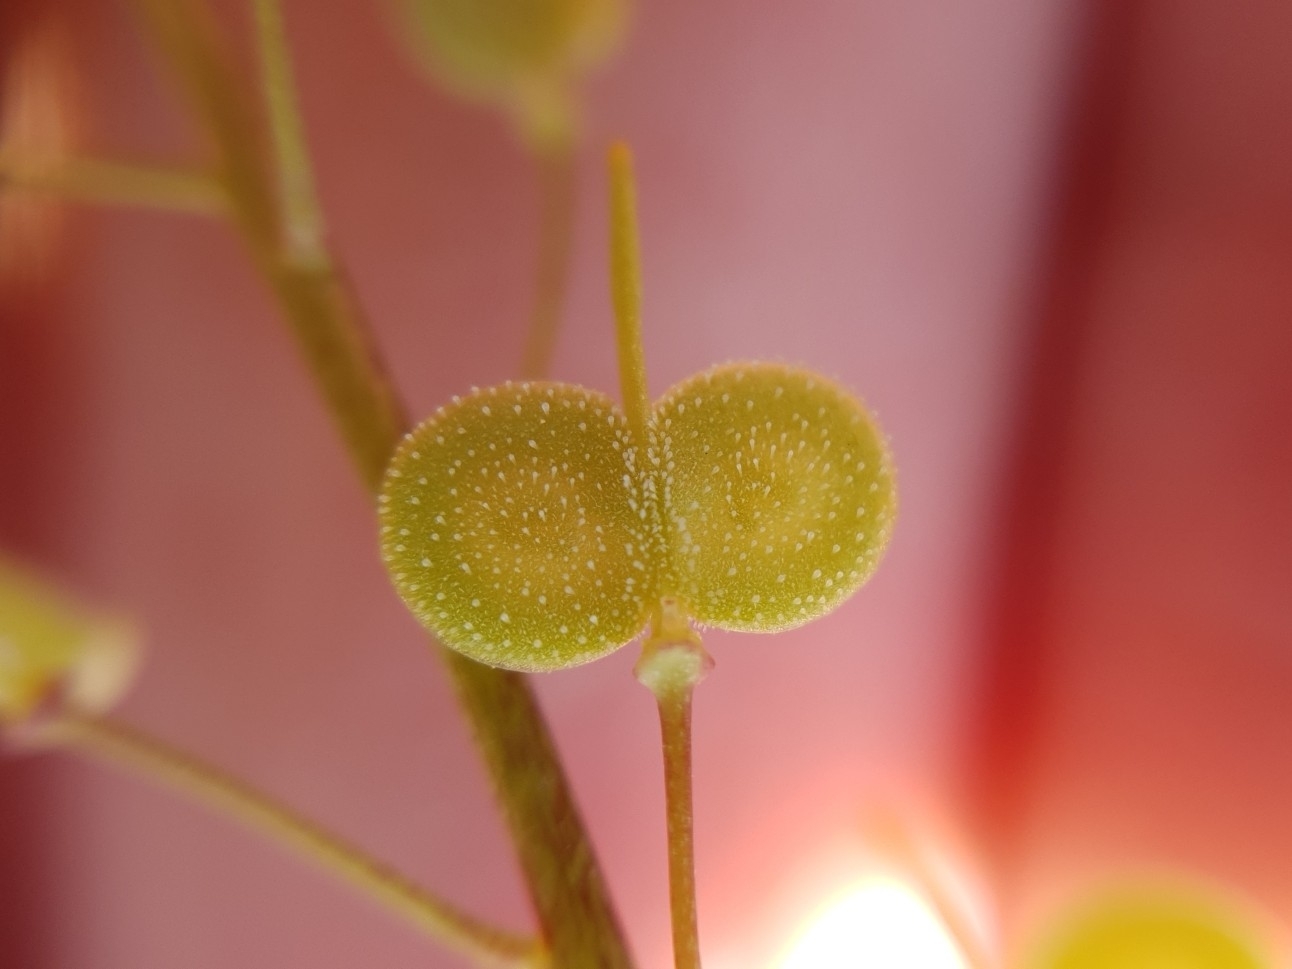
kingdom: Plantae
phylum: Tracheophyta
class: Magnoliopsida
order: Brassicales
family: Brassicaceae
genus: Biscutella
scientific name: Biscutella didyma
